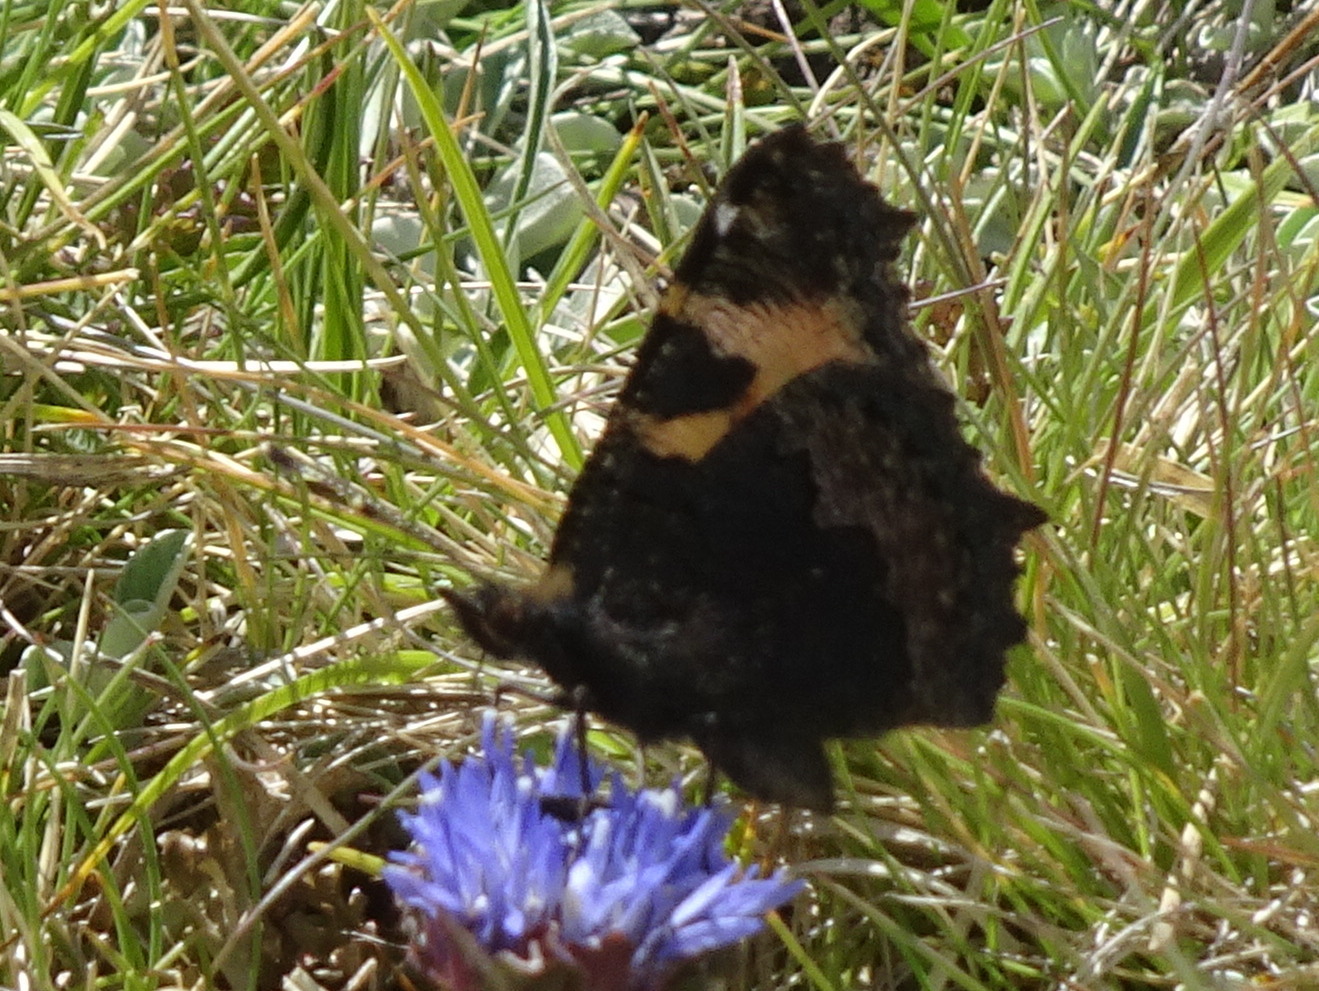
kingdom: Animalia
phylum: Arthropoda
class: Insecta
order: Lepidoptera
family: Nymphalidae
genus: Aglais
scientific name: Aglais urticae
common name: Small tortoiseshell
